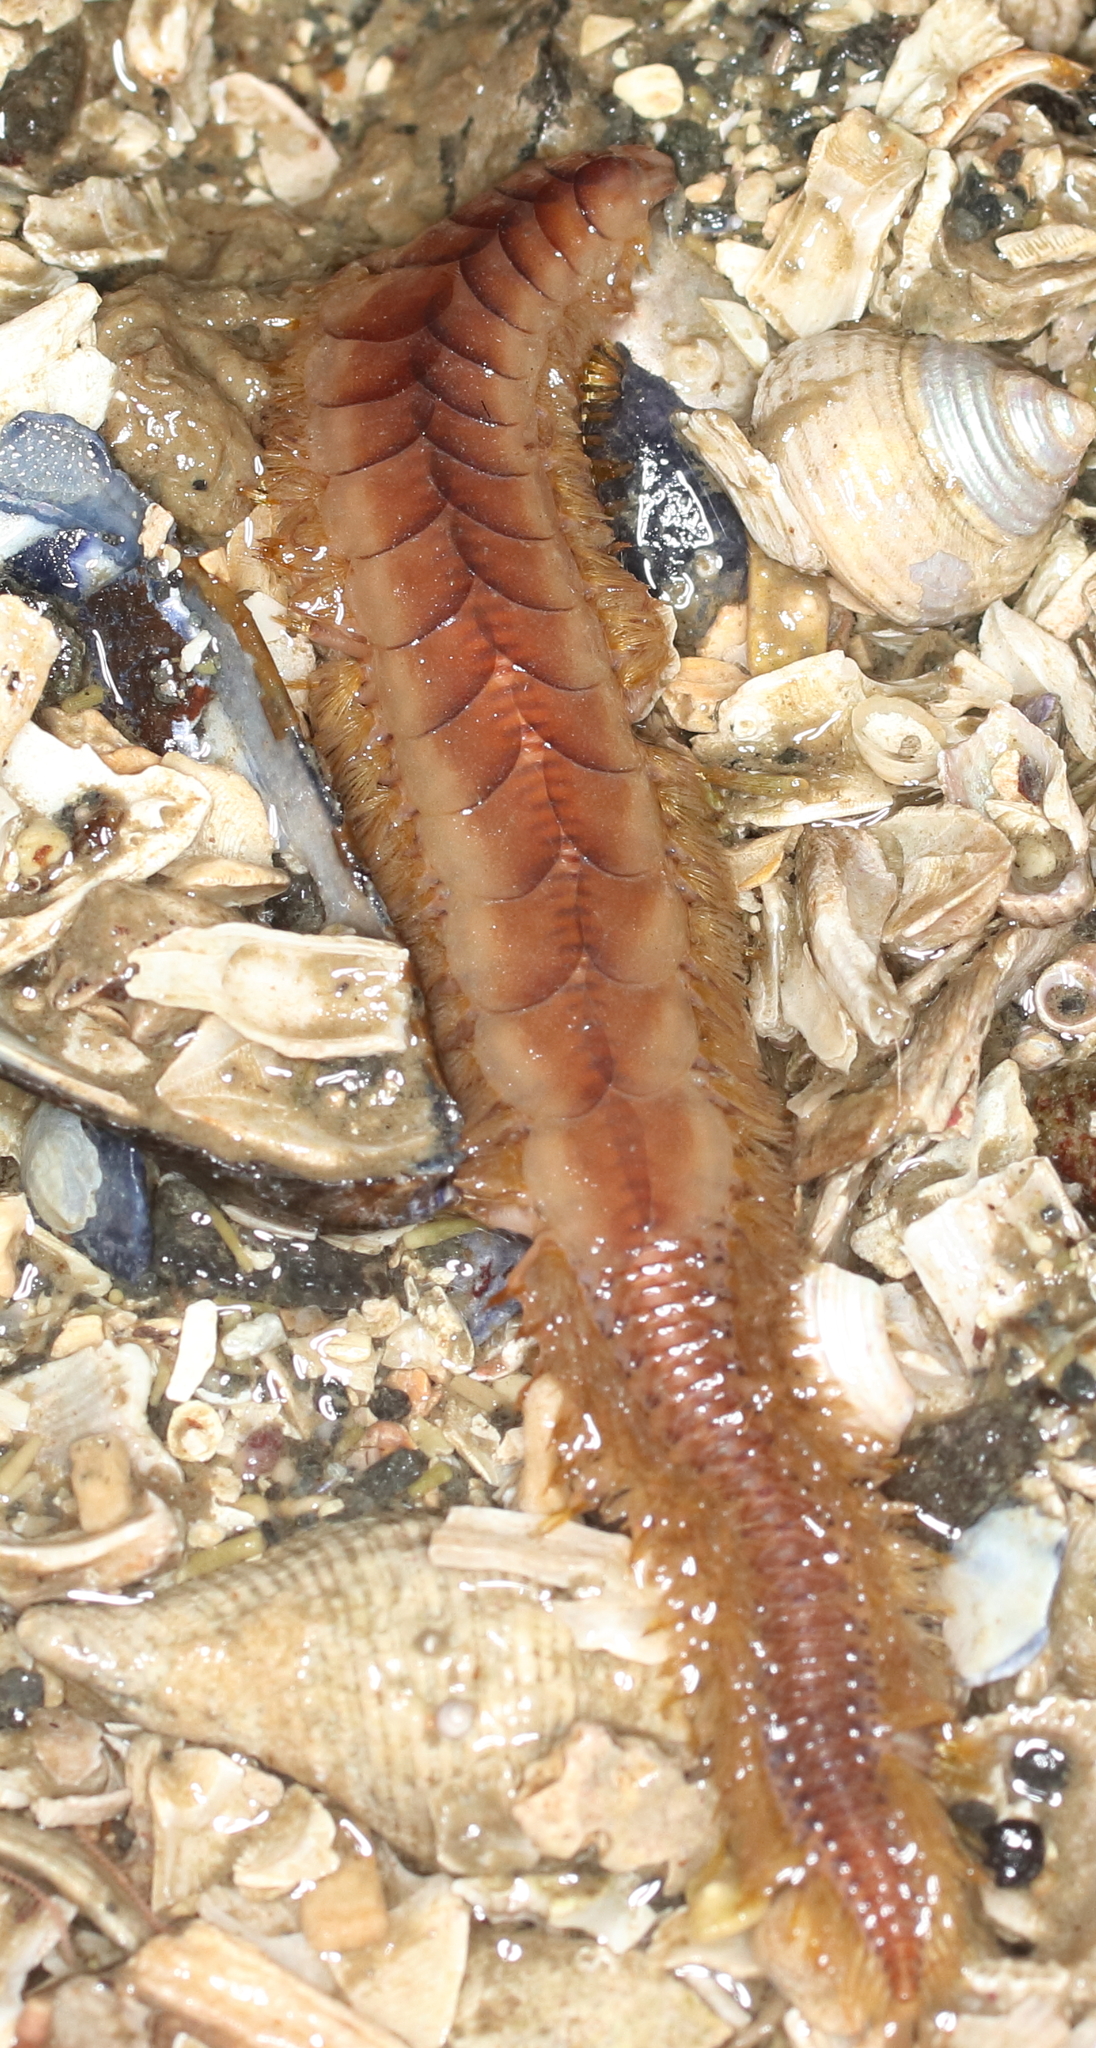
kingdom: Animalia
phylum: Annelida
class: Polychaeta
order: Phyllodocida
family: Polynoidae
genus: Hermadionella
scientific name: Hermadionella truncata
